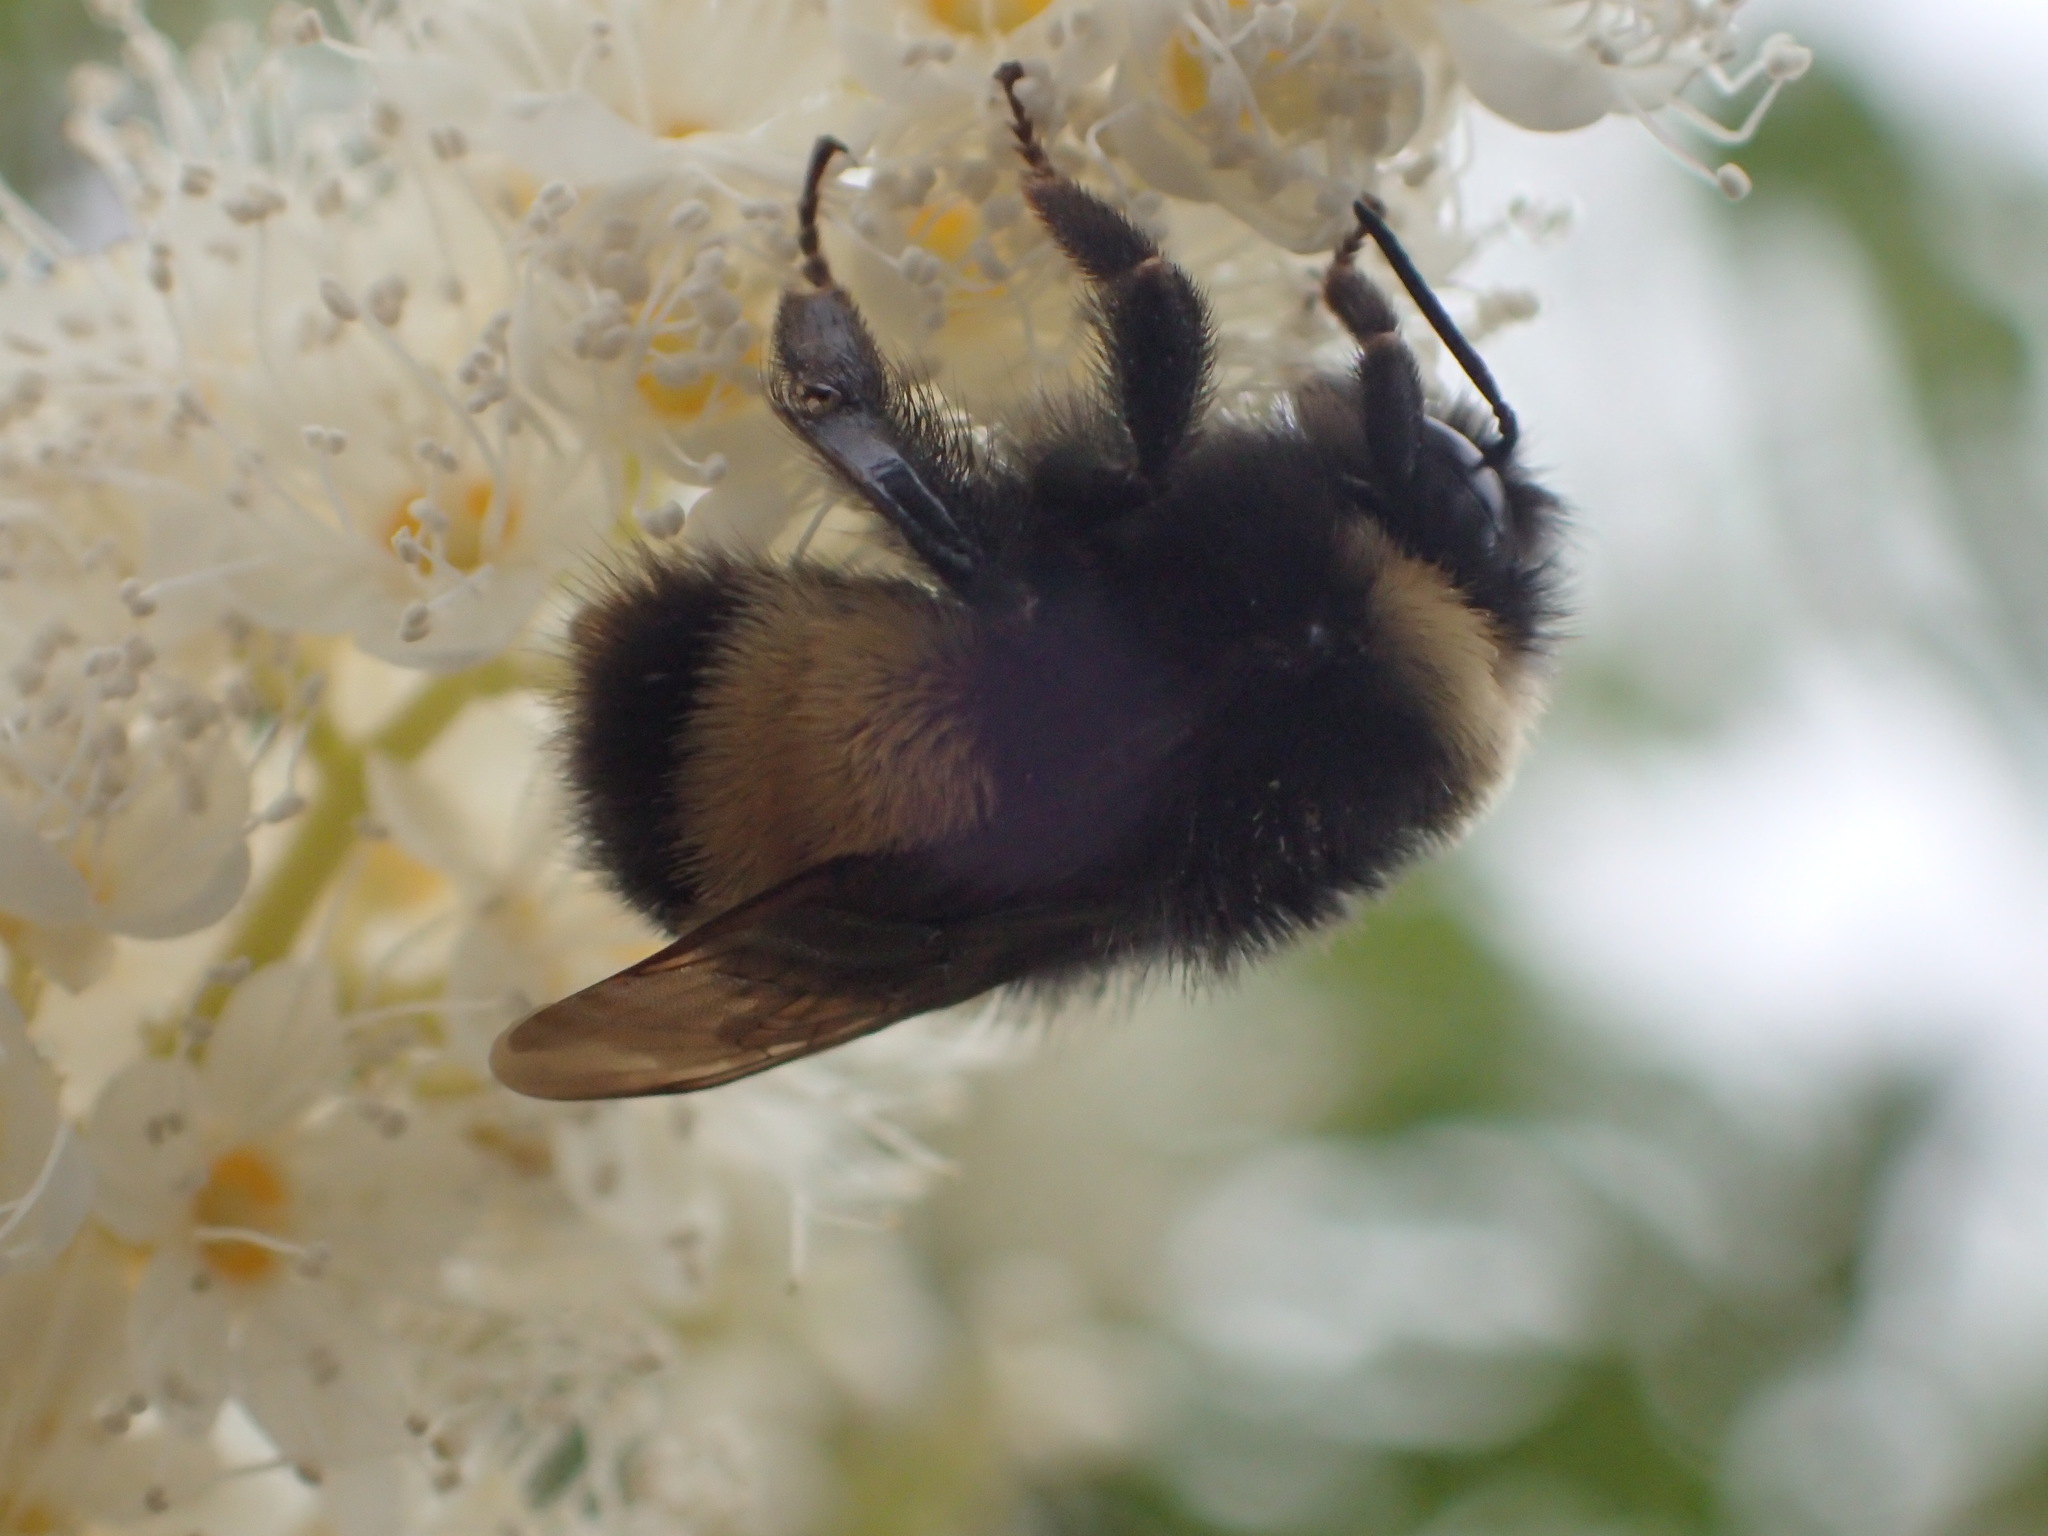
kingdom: Animalia
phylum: Arthropoda
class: Insecta
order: Hymenoptera
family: Apidae
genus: Bombus
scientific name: Bombus terricola
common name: Yellow-banded bumble bee
